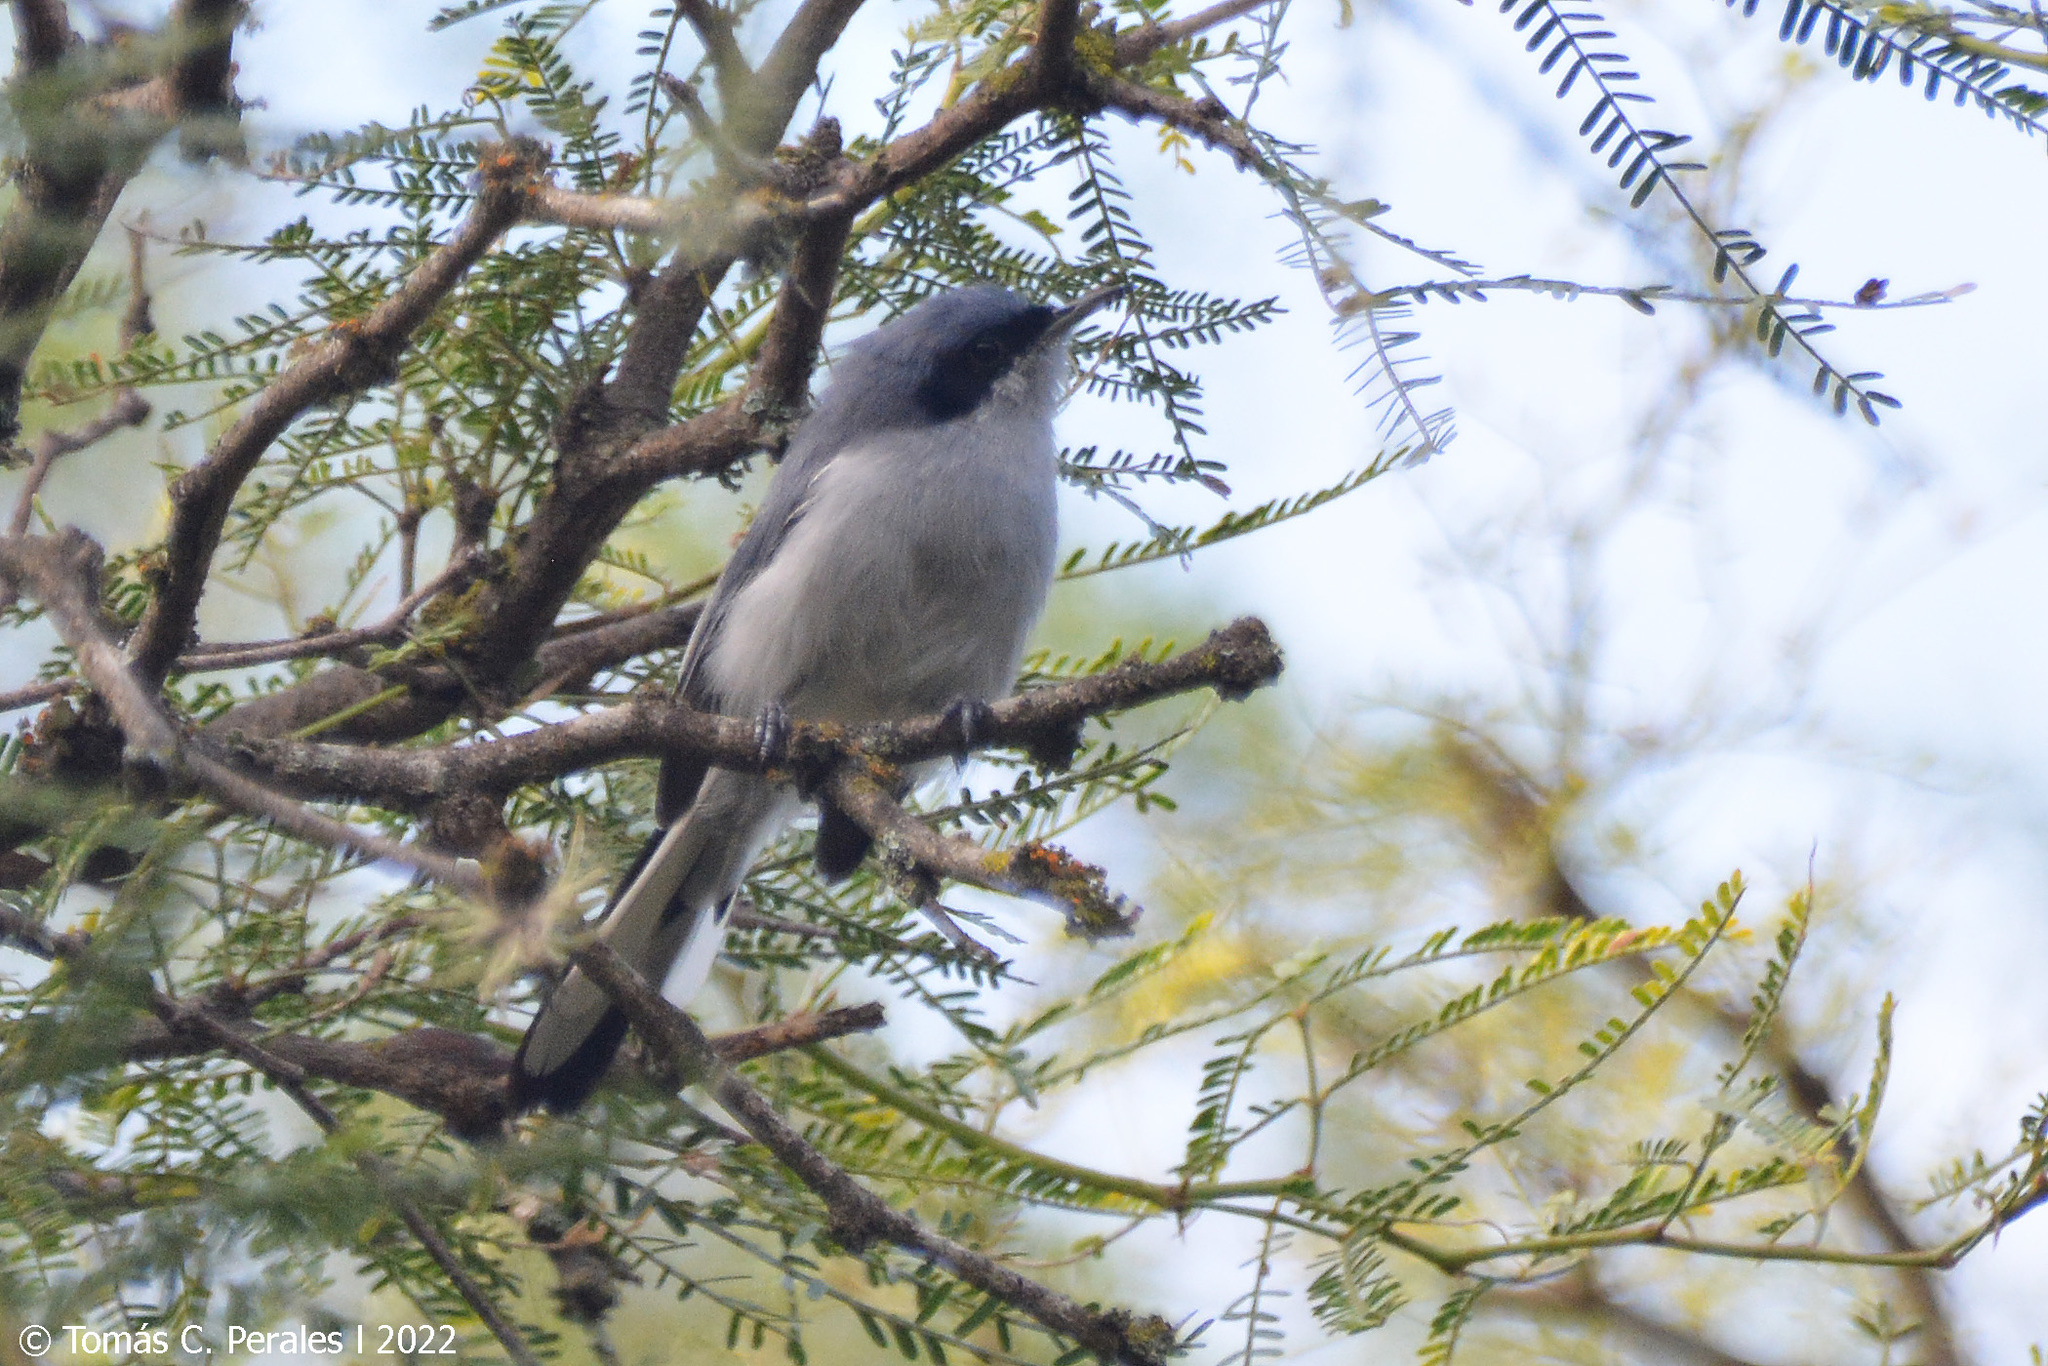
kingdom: Animalia
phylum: Chordata
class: Aves
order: Passeriformes
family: Polioptilidae
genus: Polioptila
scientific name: Polioptila dumicola
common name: Masked gnatcatcher
